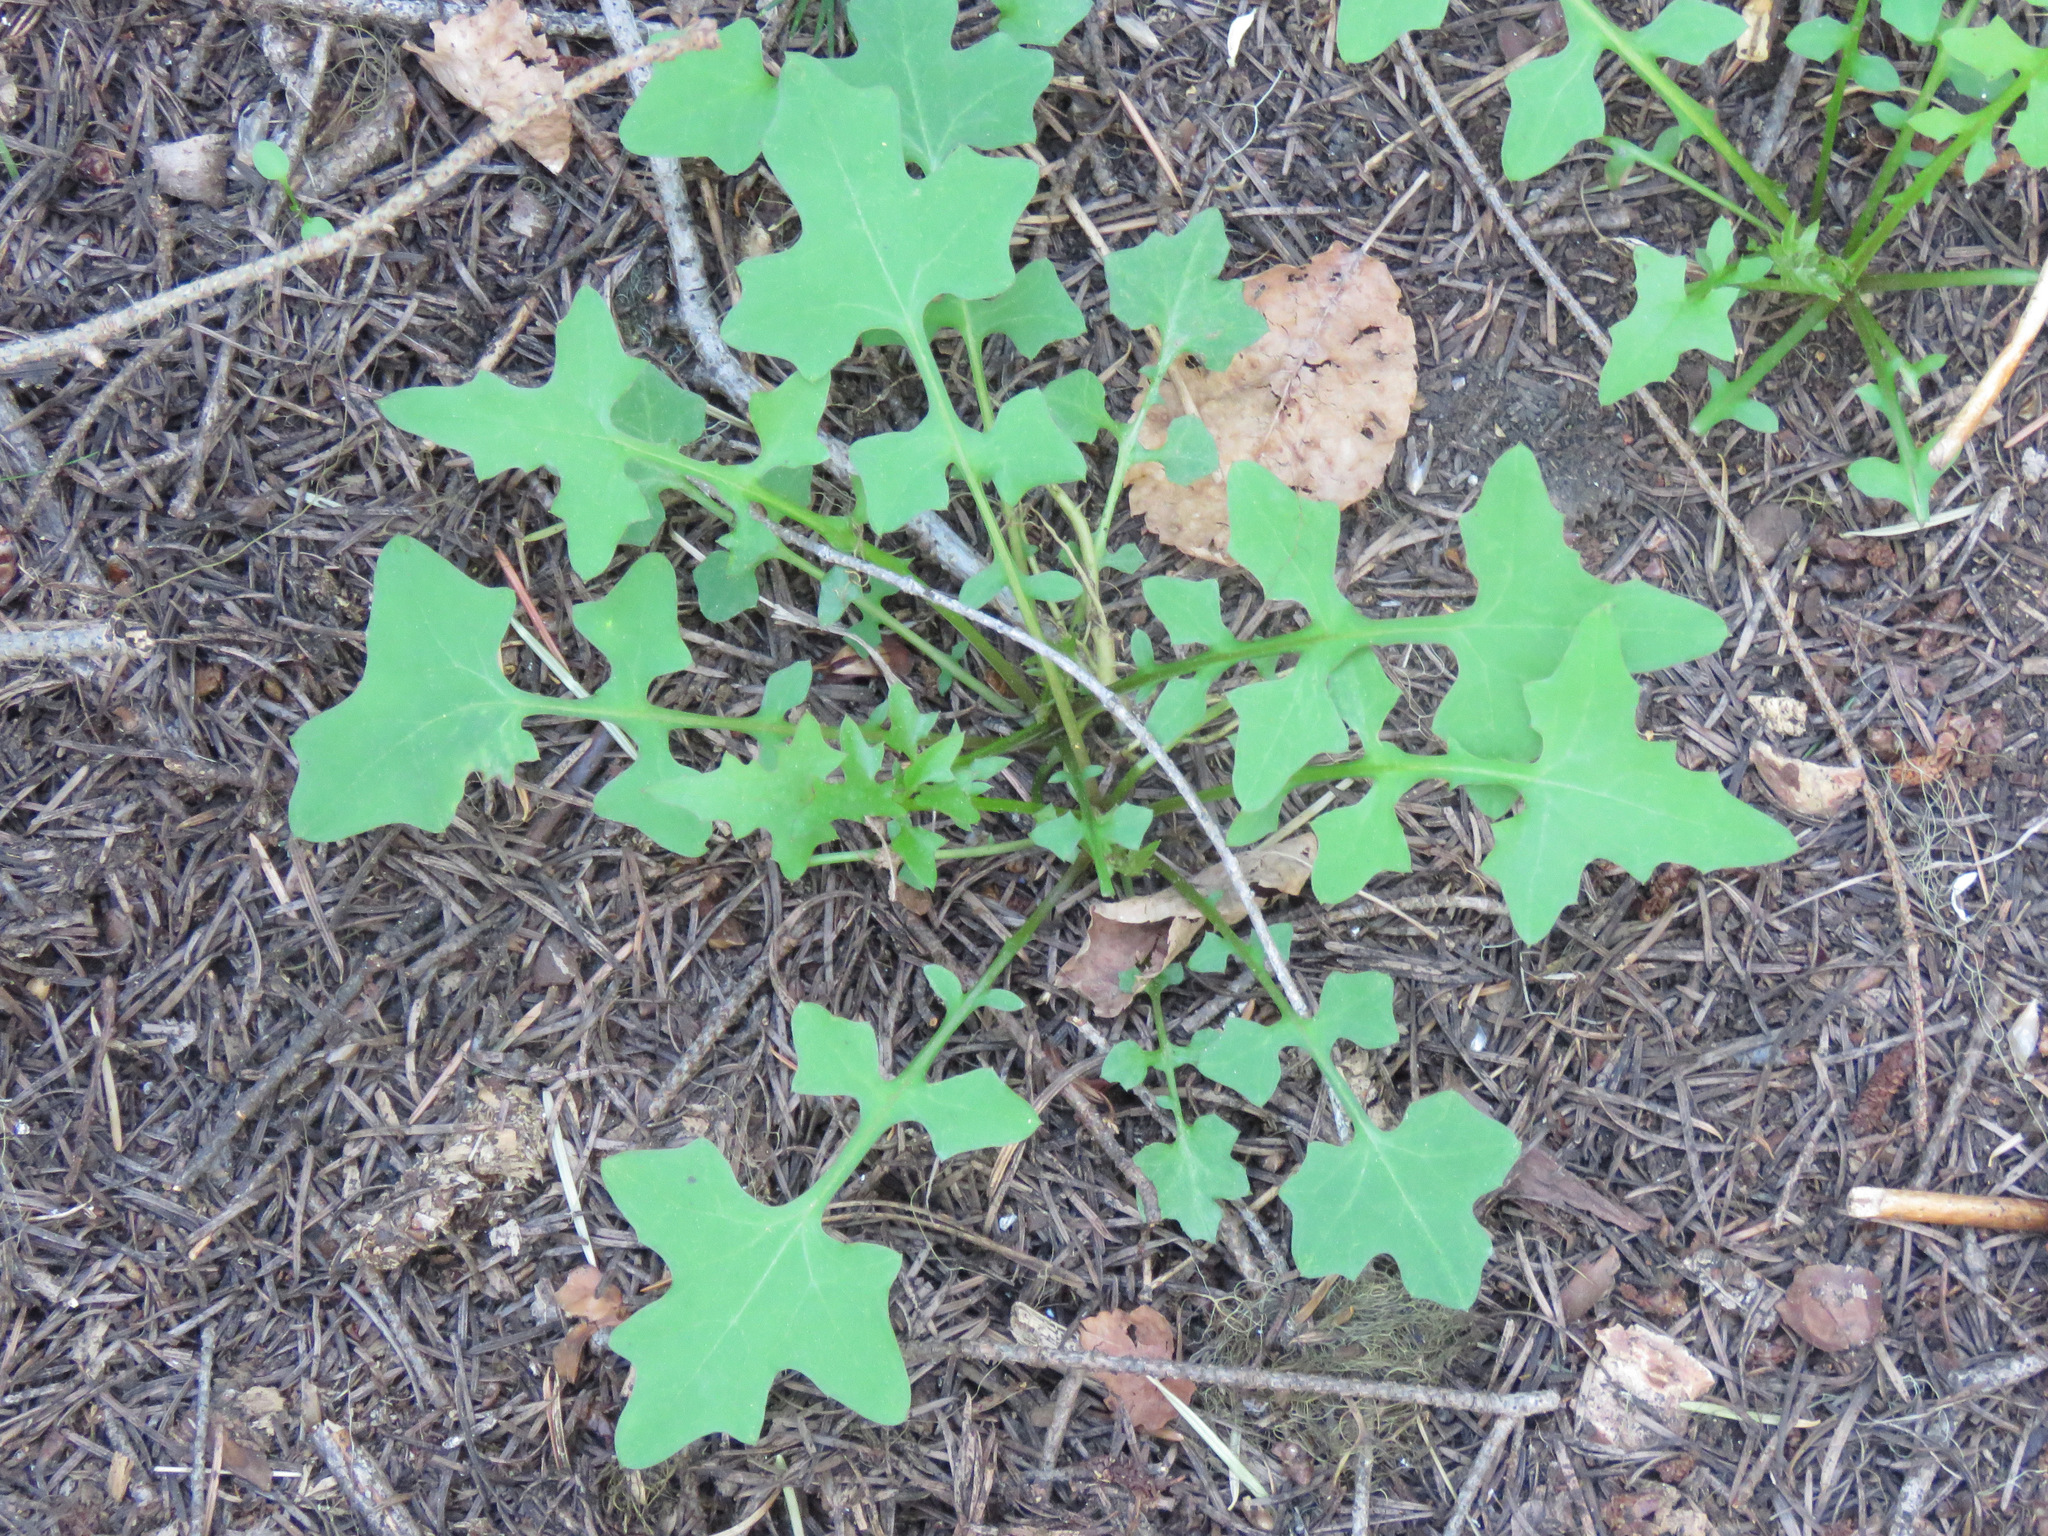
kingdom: Plantae
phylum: Tracheophyta
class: Magnoliopsida
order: Asterales
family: Asteraceae
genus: Mycelis
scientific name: Mycelis muralis
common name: Wall lettuce
